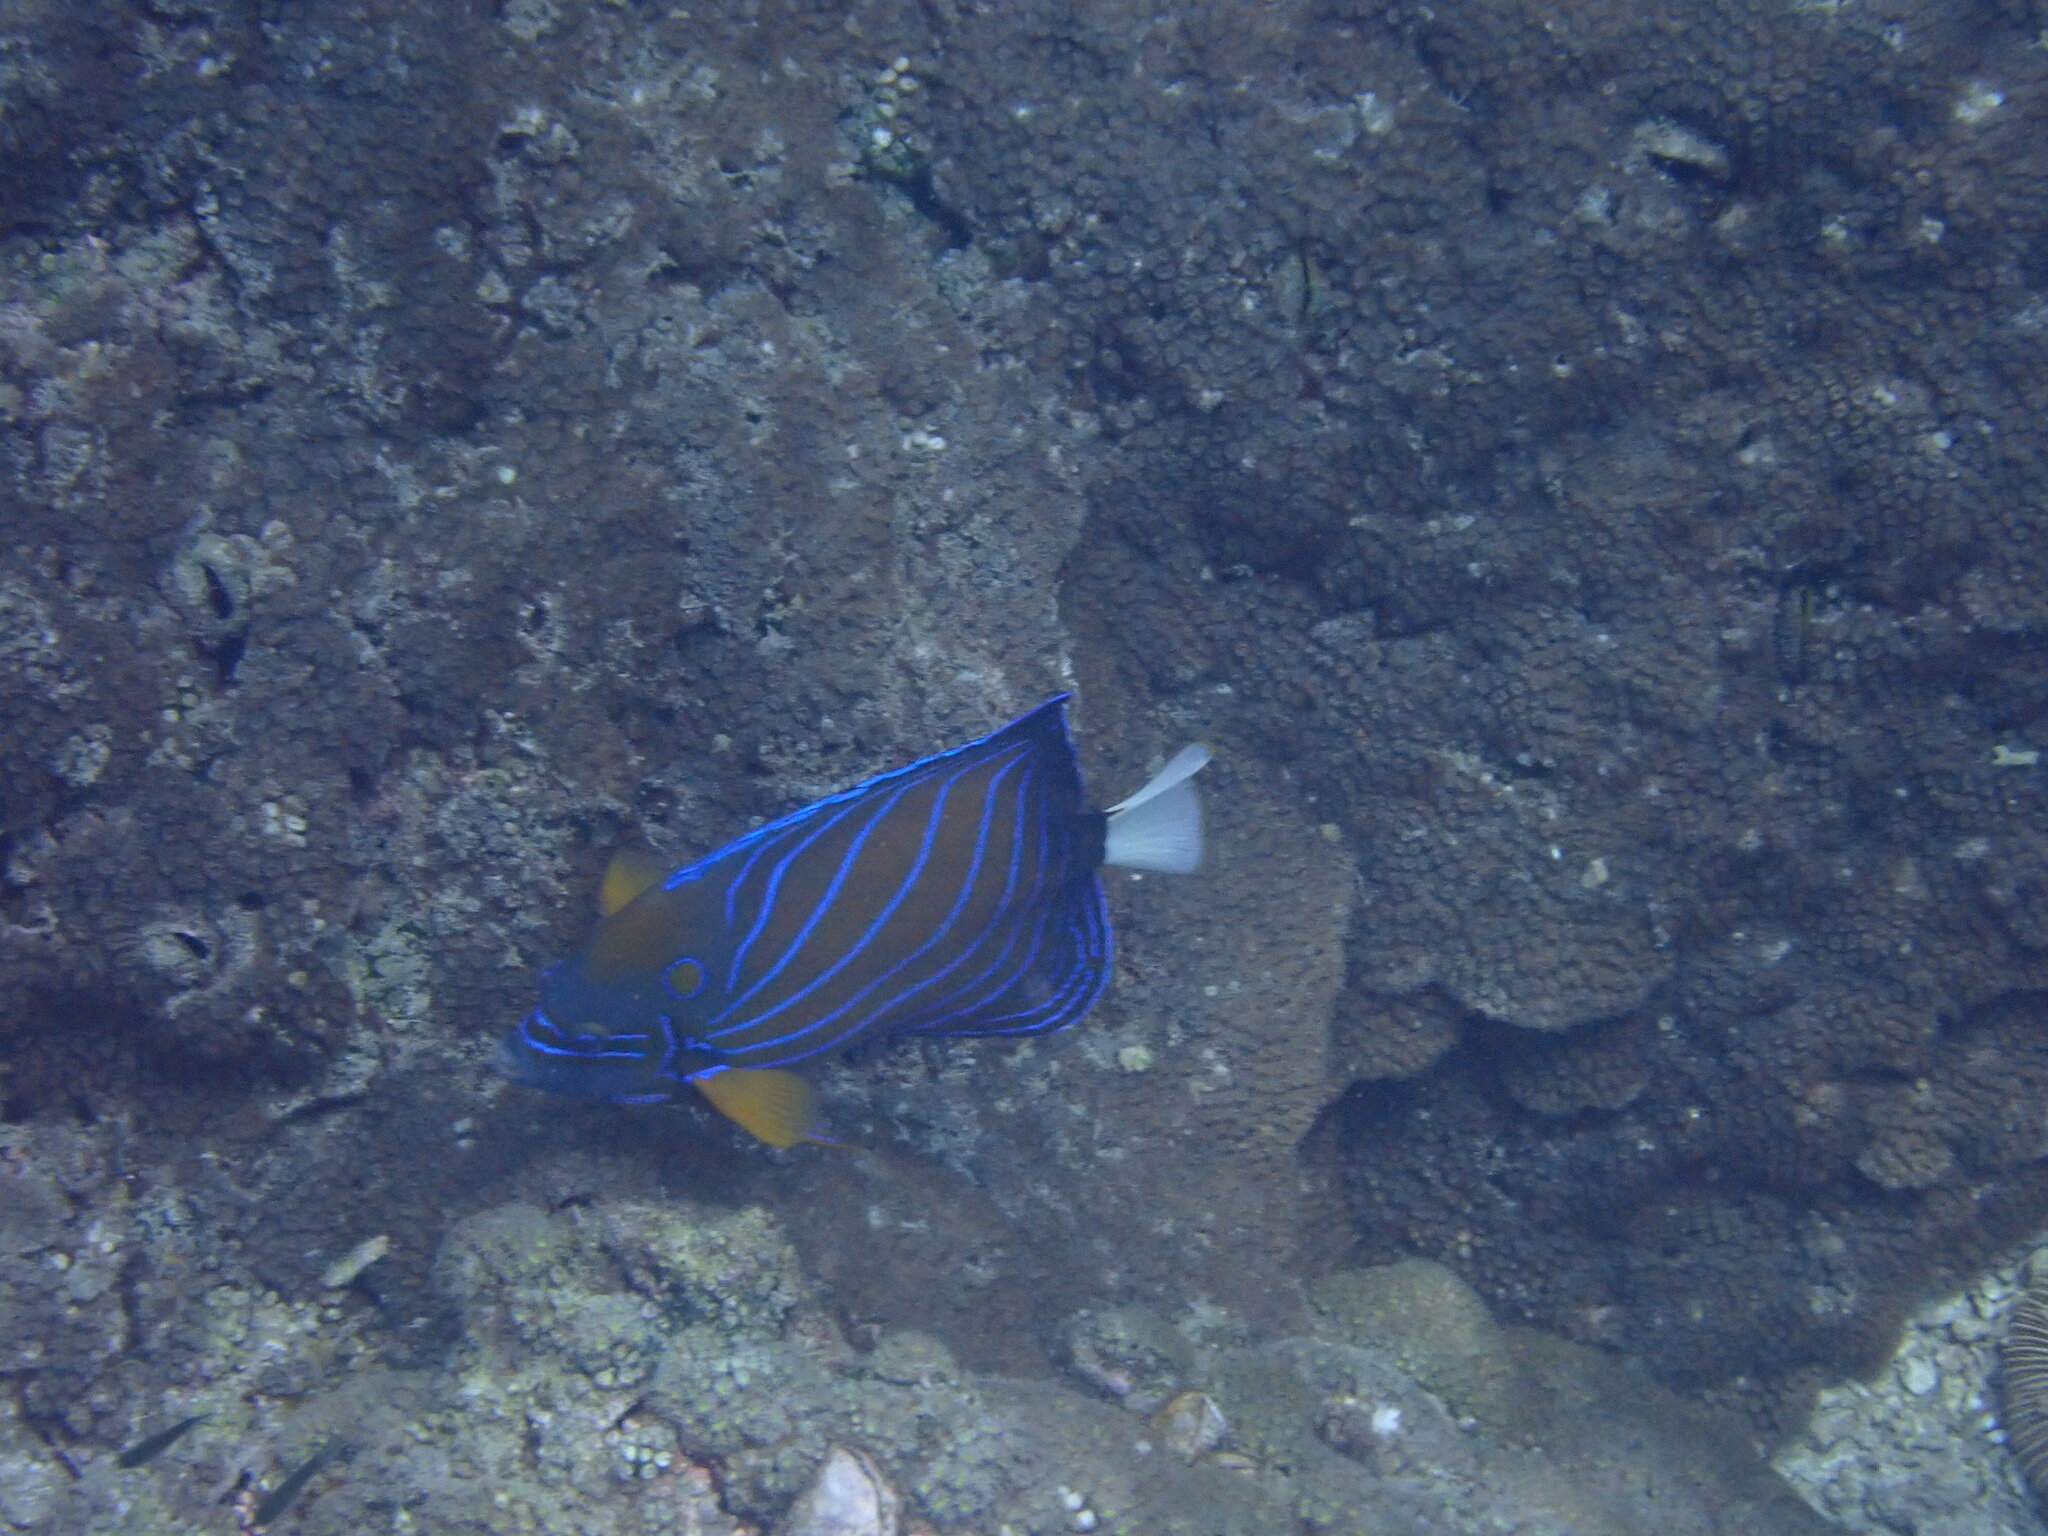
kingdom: Animalia
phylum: Chordata
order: Perciformes
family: Pomacanthidae
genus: Pomacanthus
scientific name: Pomacanthus annularis
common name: Bluering angelfish
